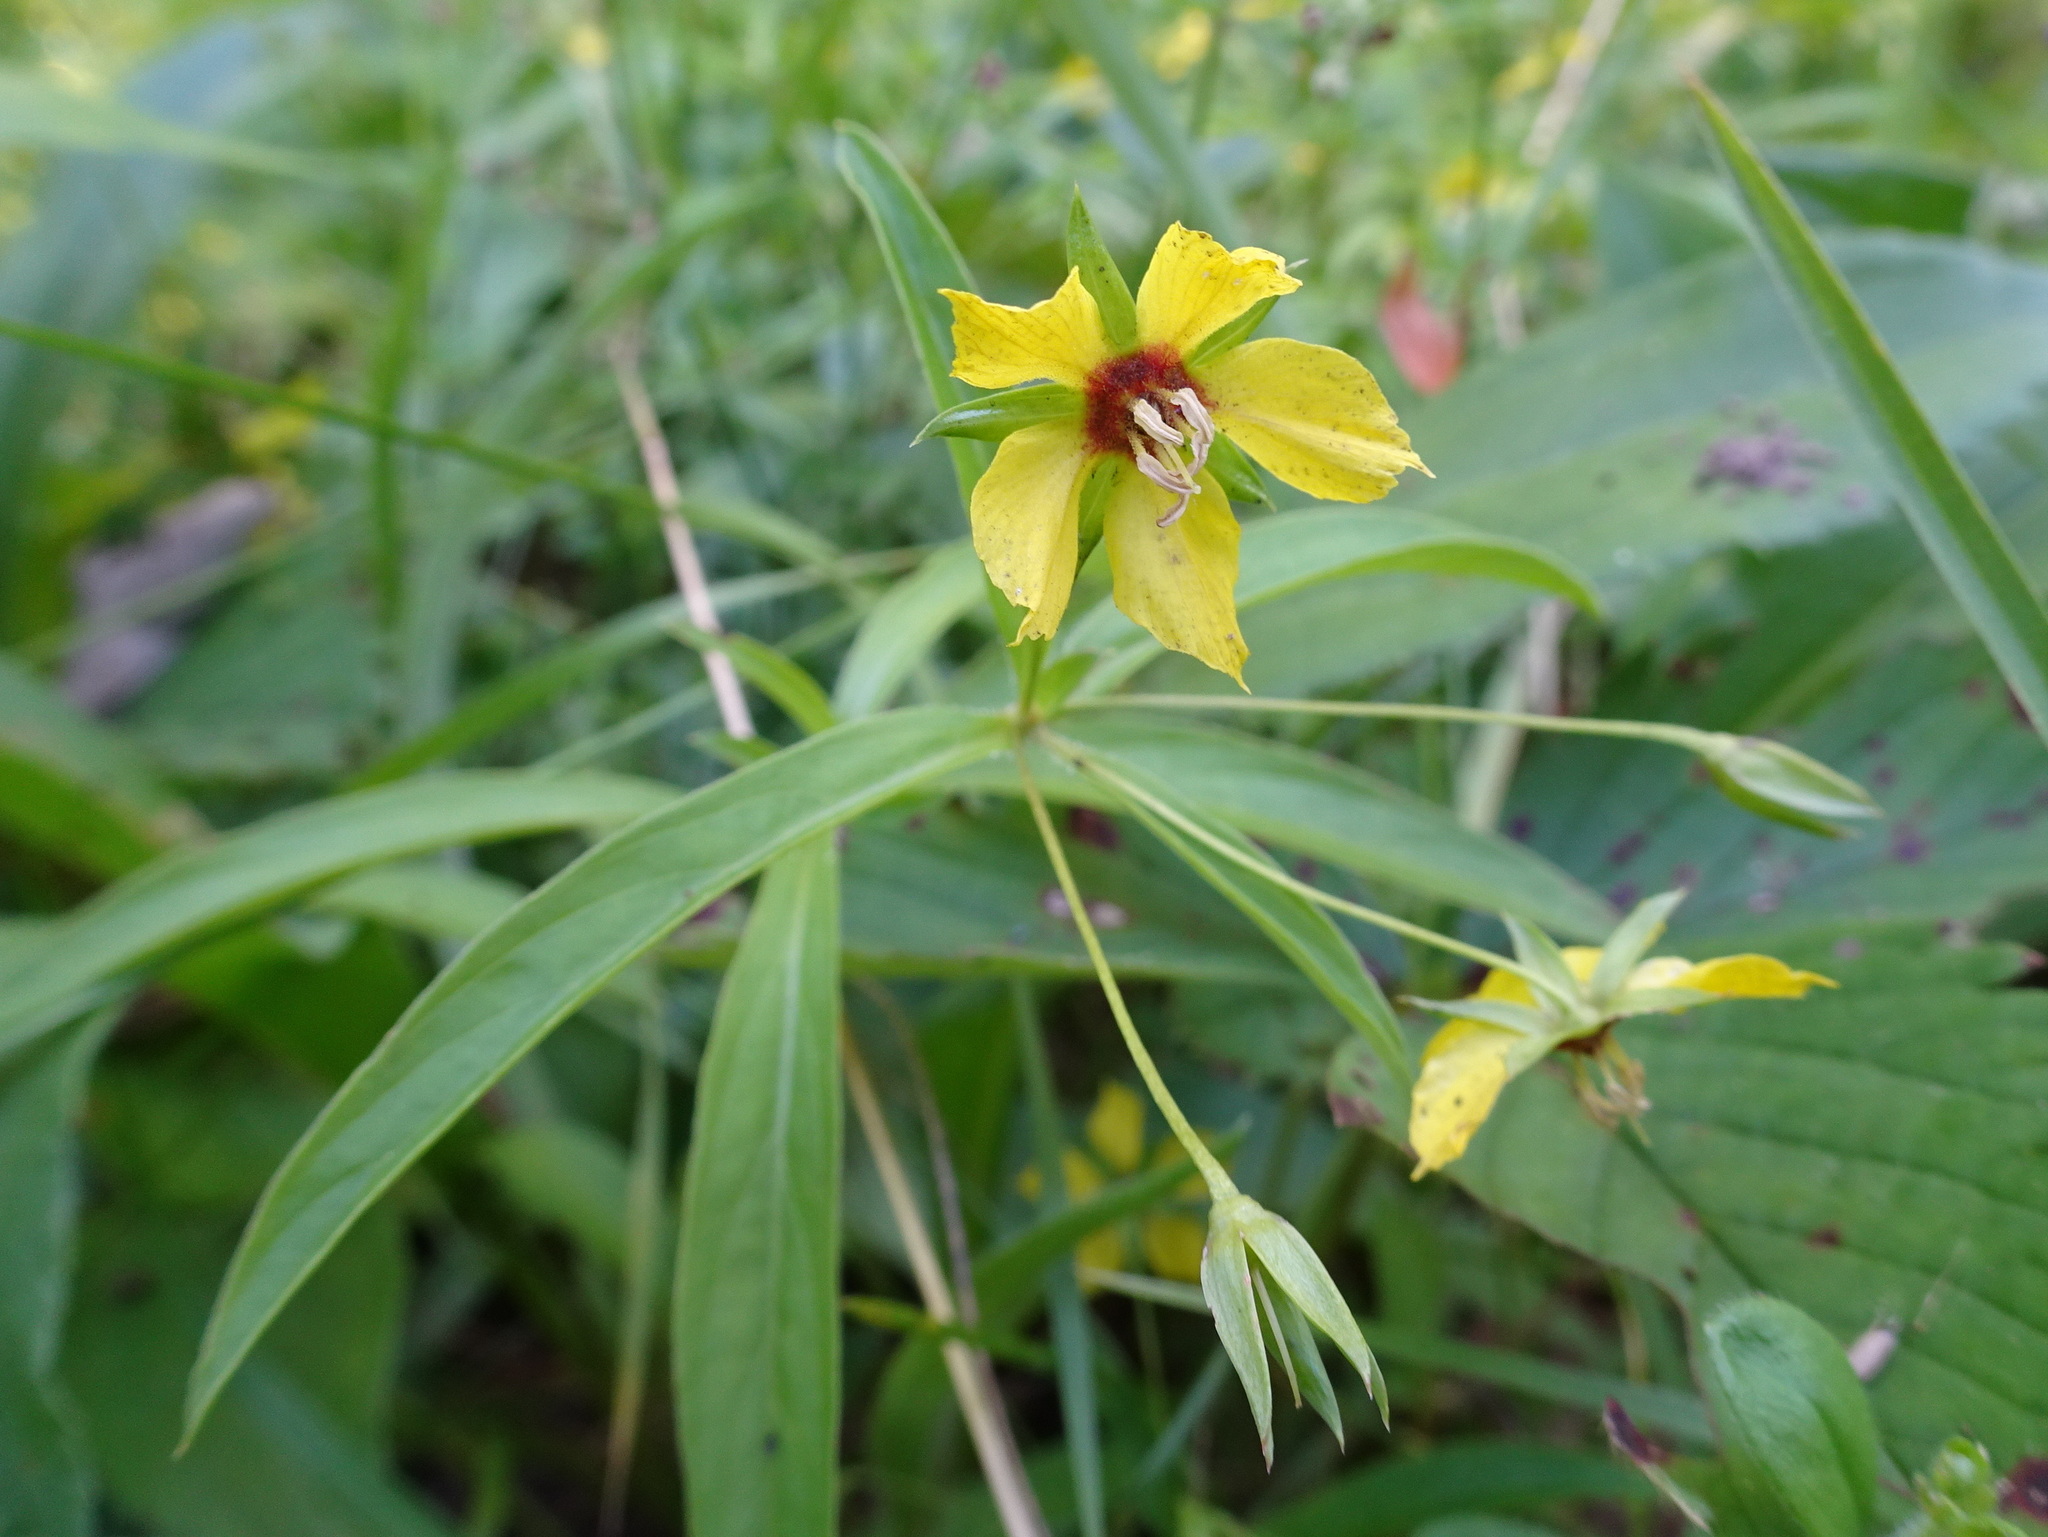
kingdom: Plantae
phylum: Tracheophyta
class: Magnoliopsida
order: Ericales
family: Primulaceae
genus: Lysimachia
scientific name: Lysimachia lanceolata
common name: Lance-leaved loosestrife
